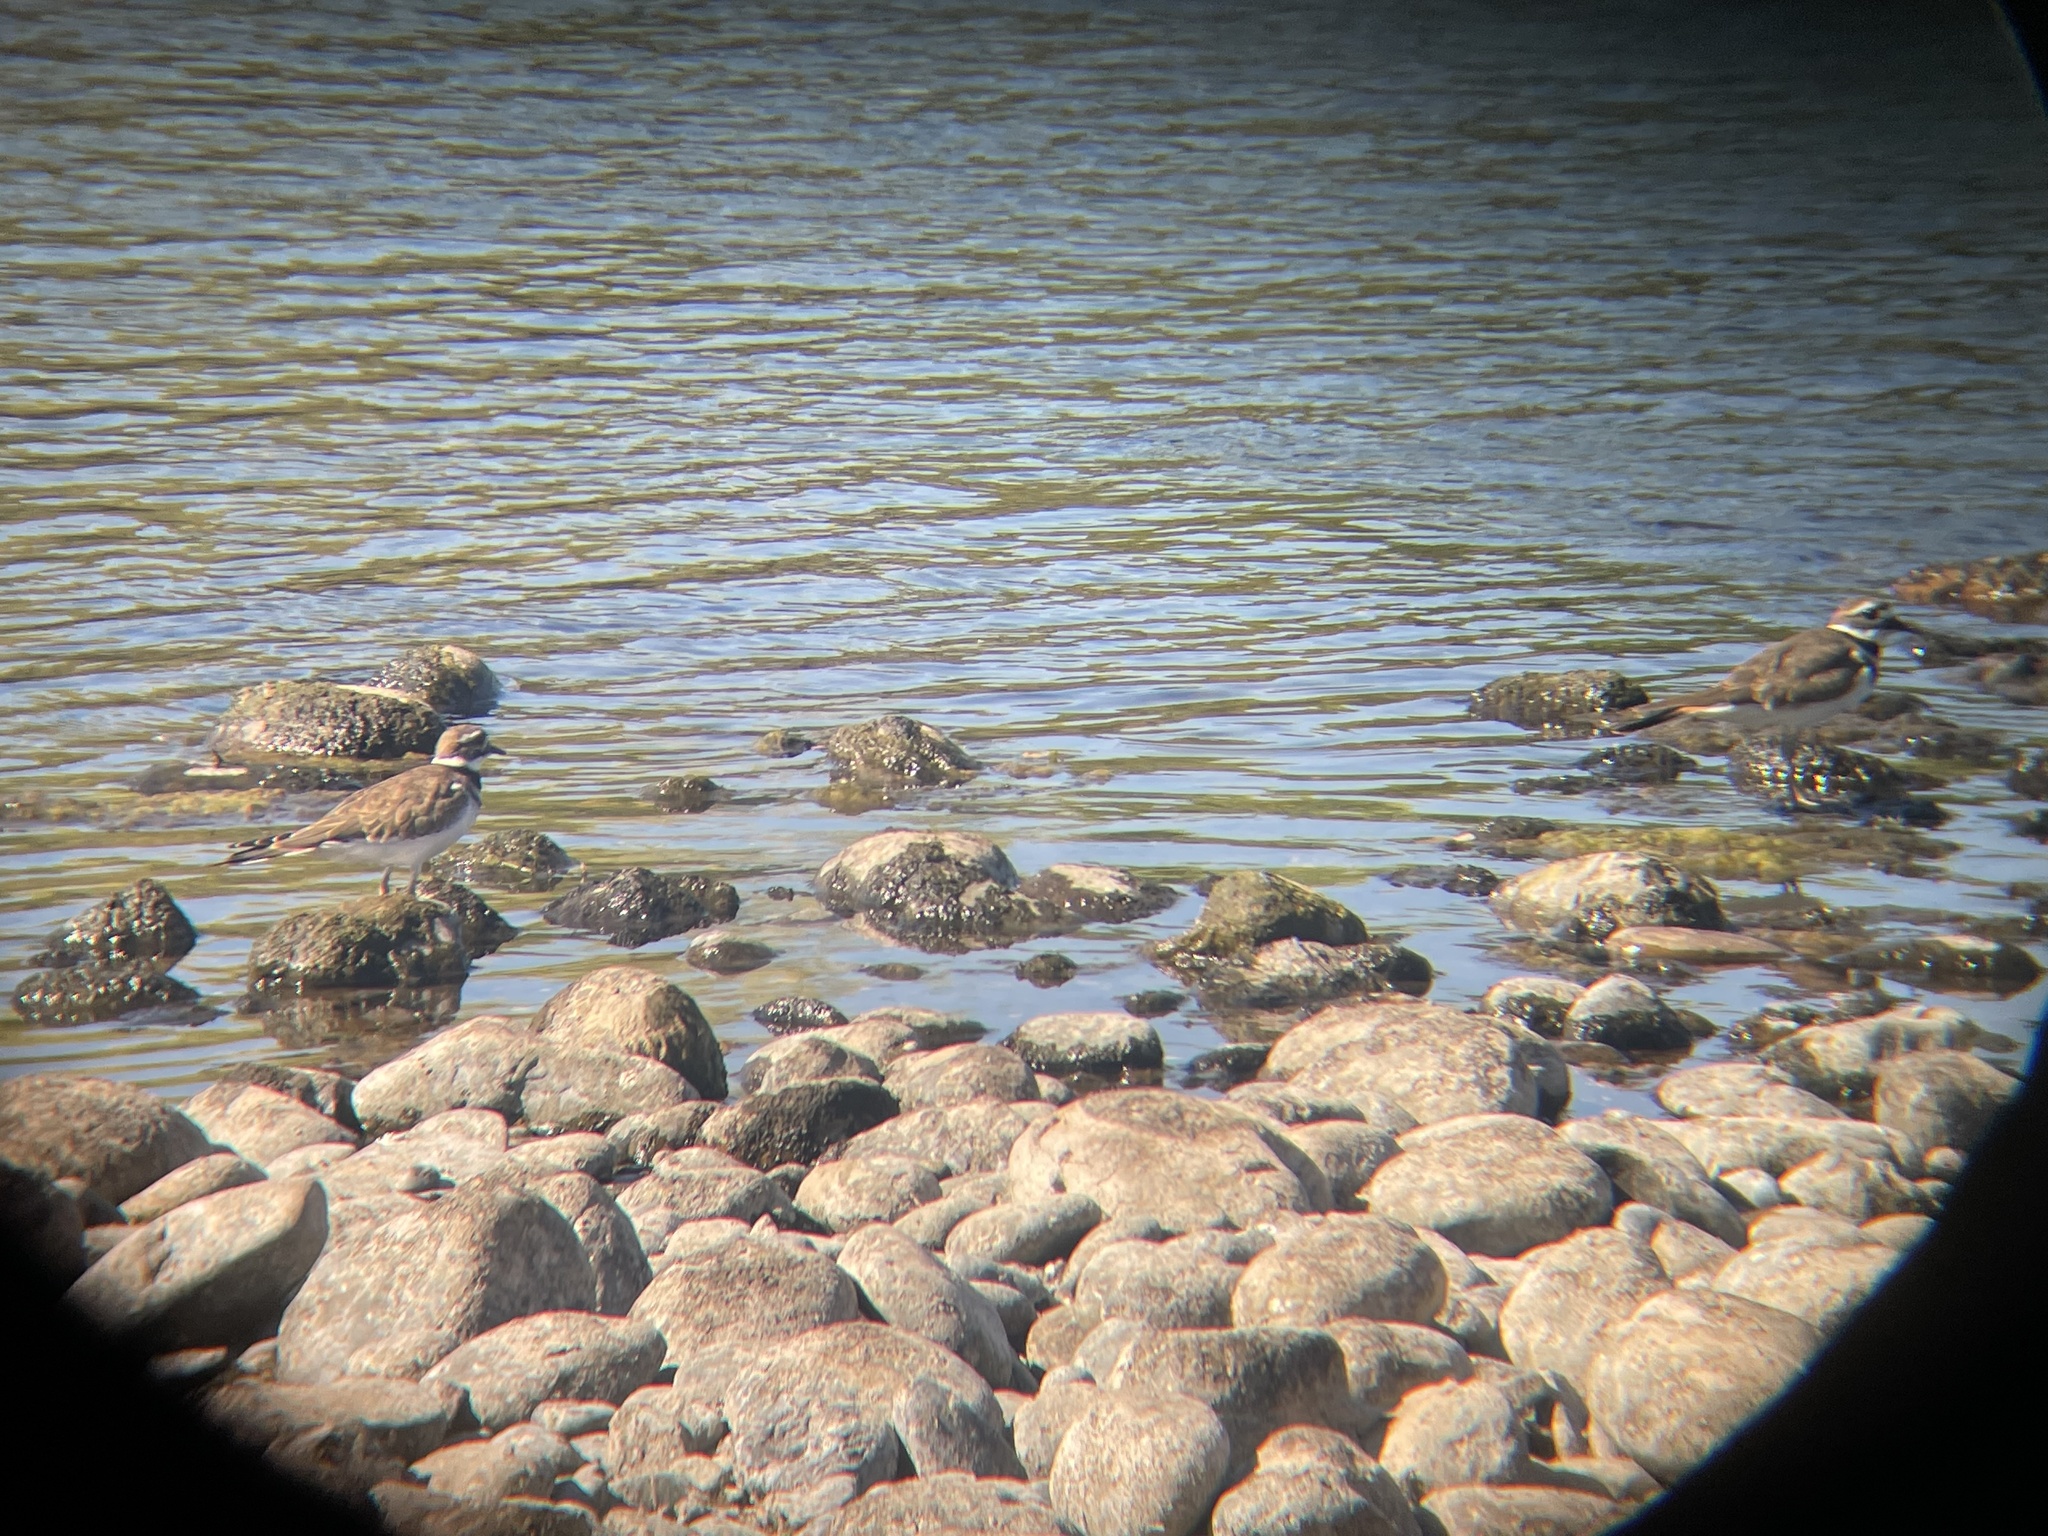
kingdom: Animalia
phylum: Chordata
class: Aves
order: Charadriiformes
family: Charadriidae
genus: Charadrius
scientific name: Charadrius vociferus
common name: Killdeer
